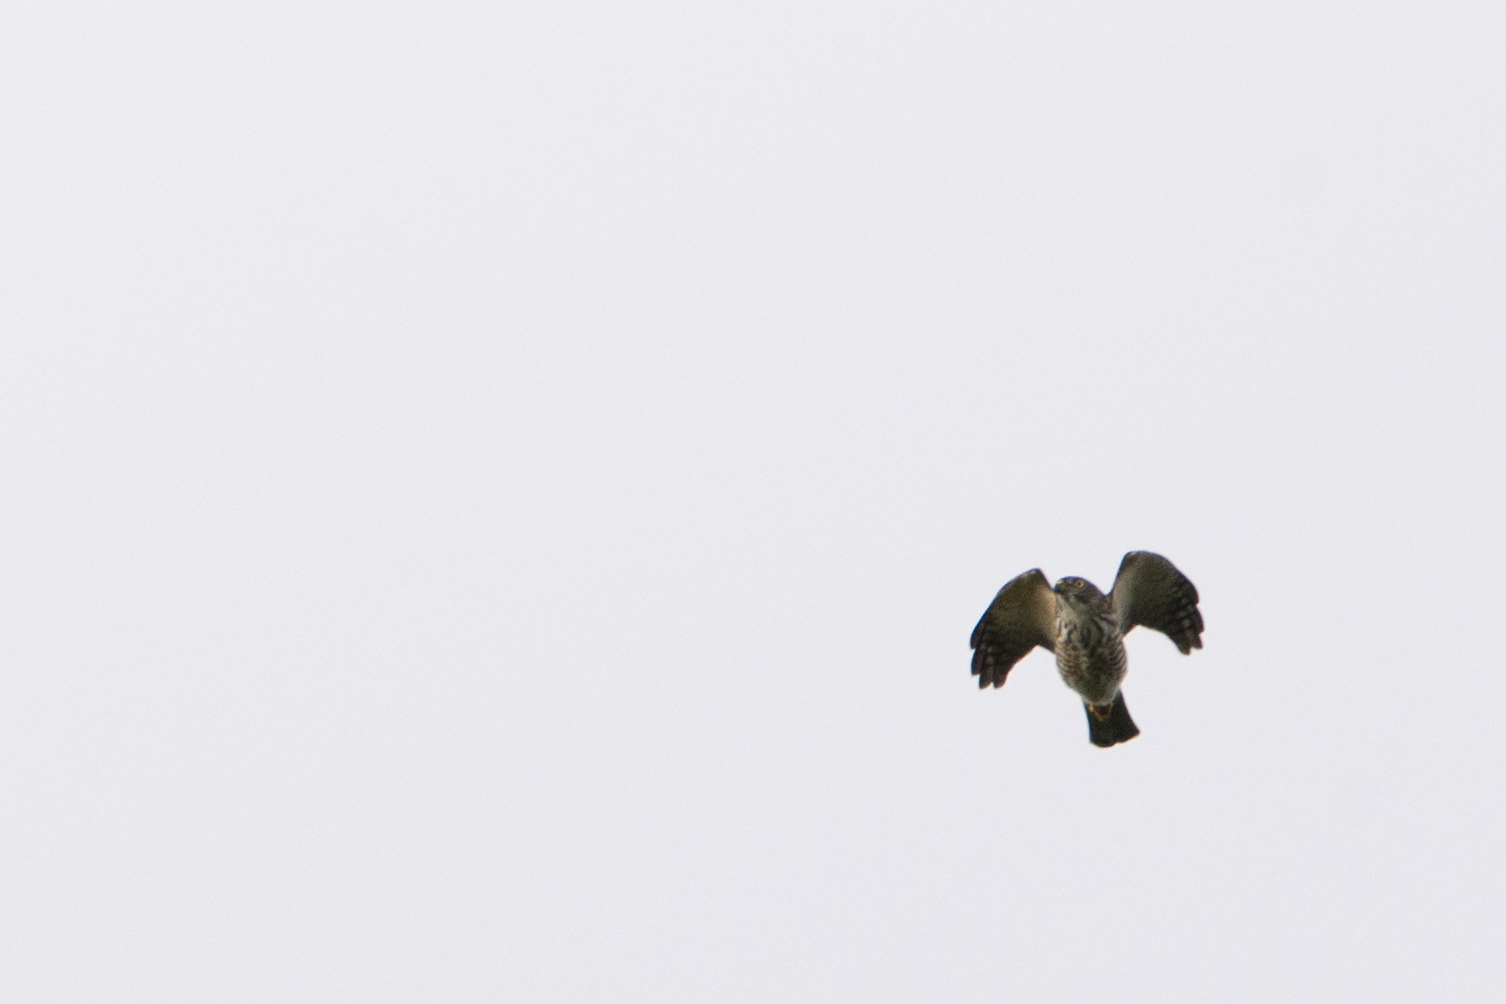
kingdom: Animalia
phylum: Chordata
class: Aves
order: Accipitriformes
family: Accipitridae
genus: Butastur
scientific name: Butastur indicus
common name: Grey-faced buzzard
